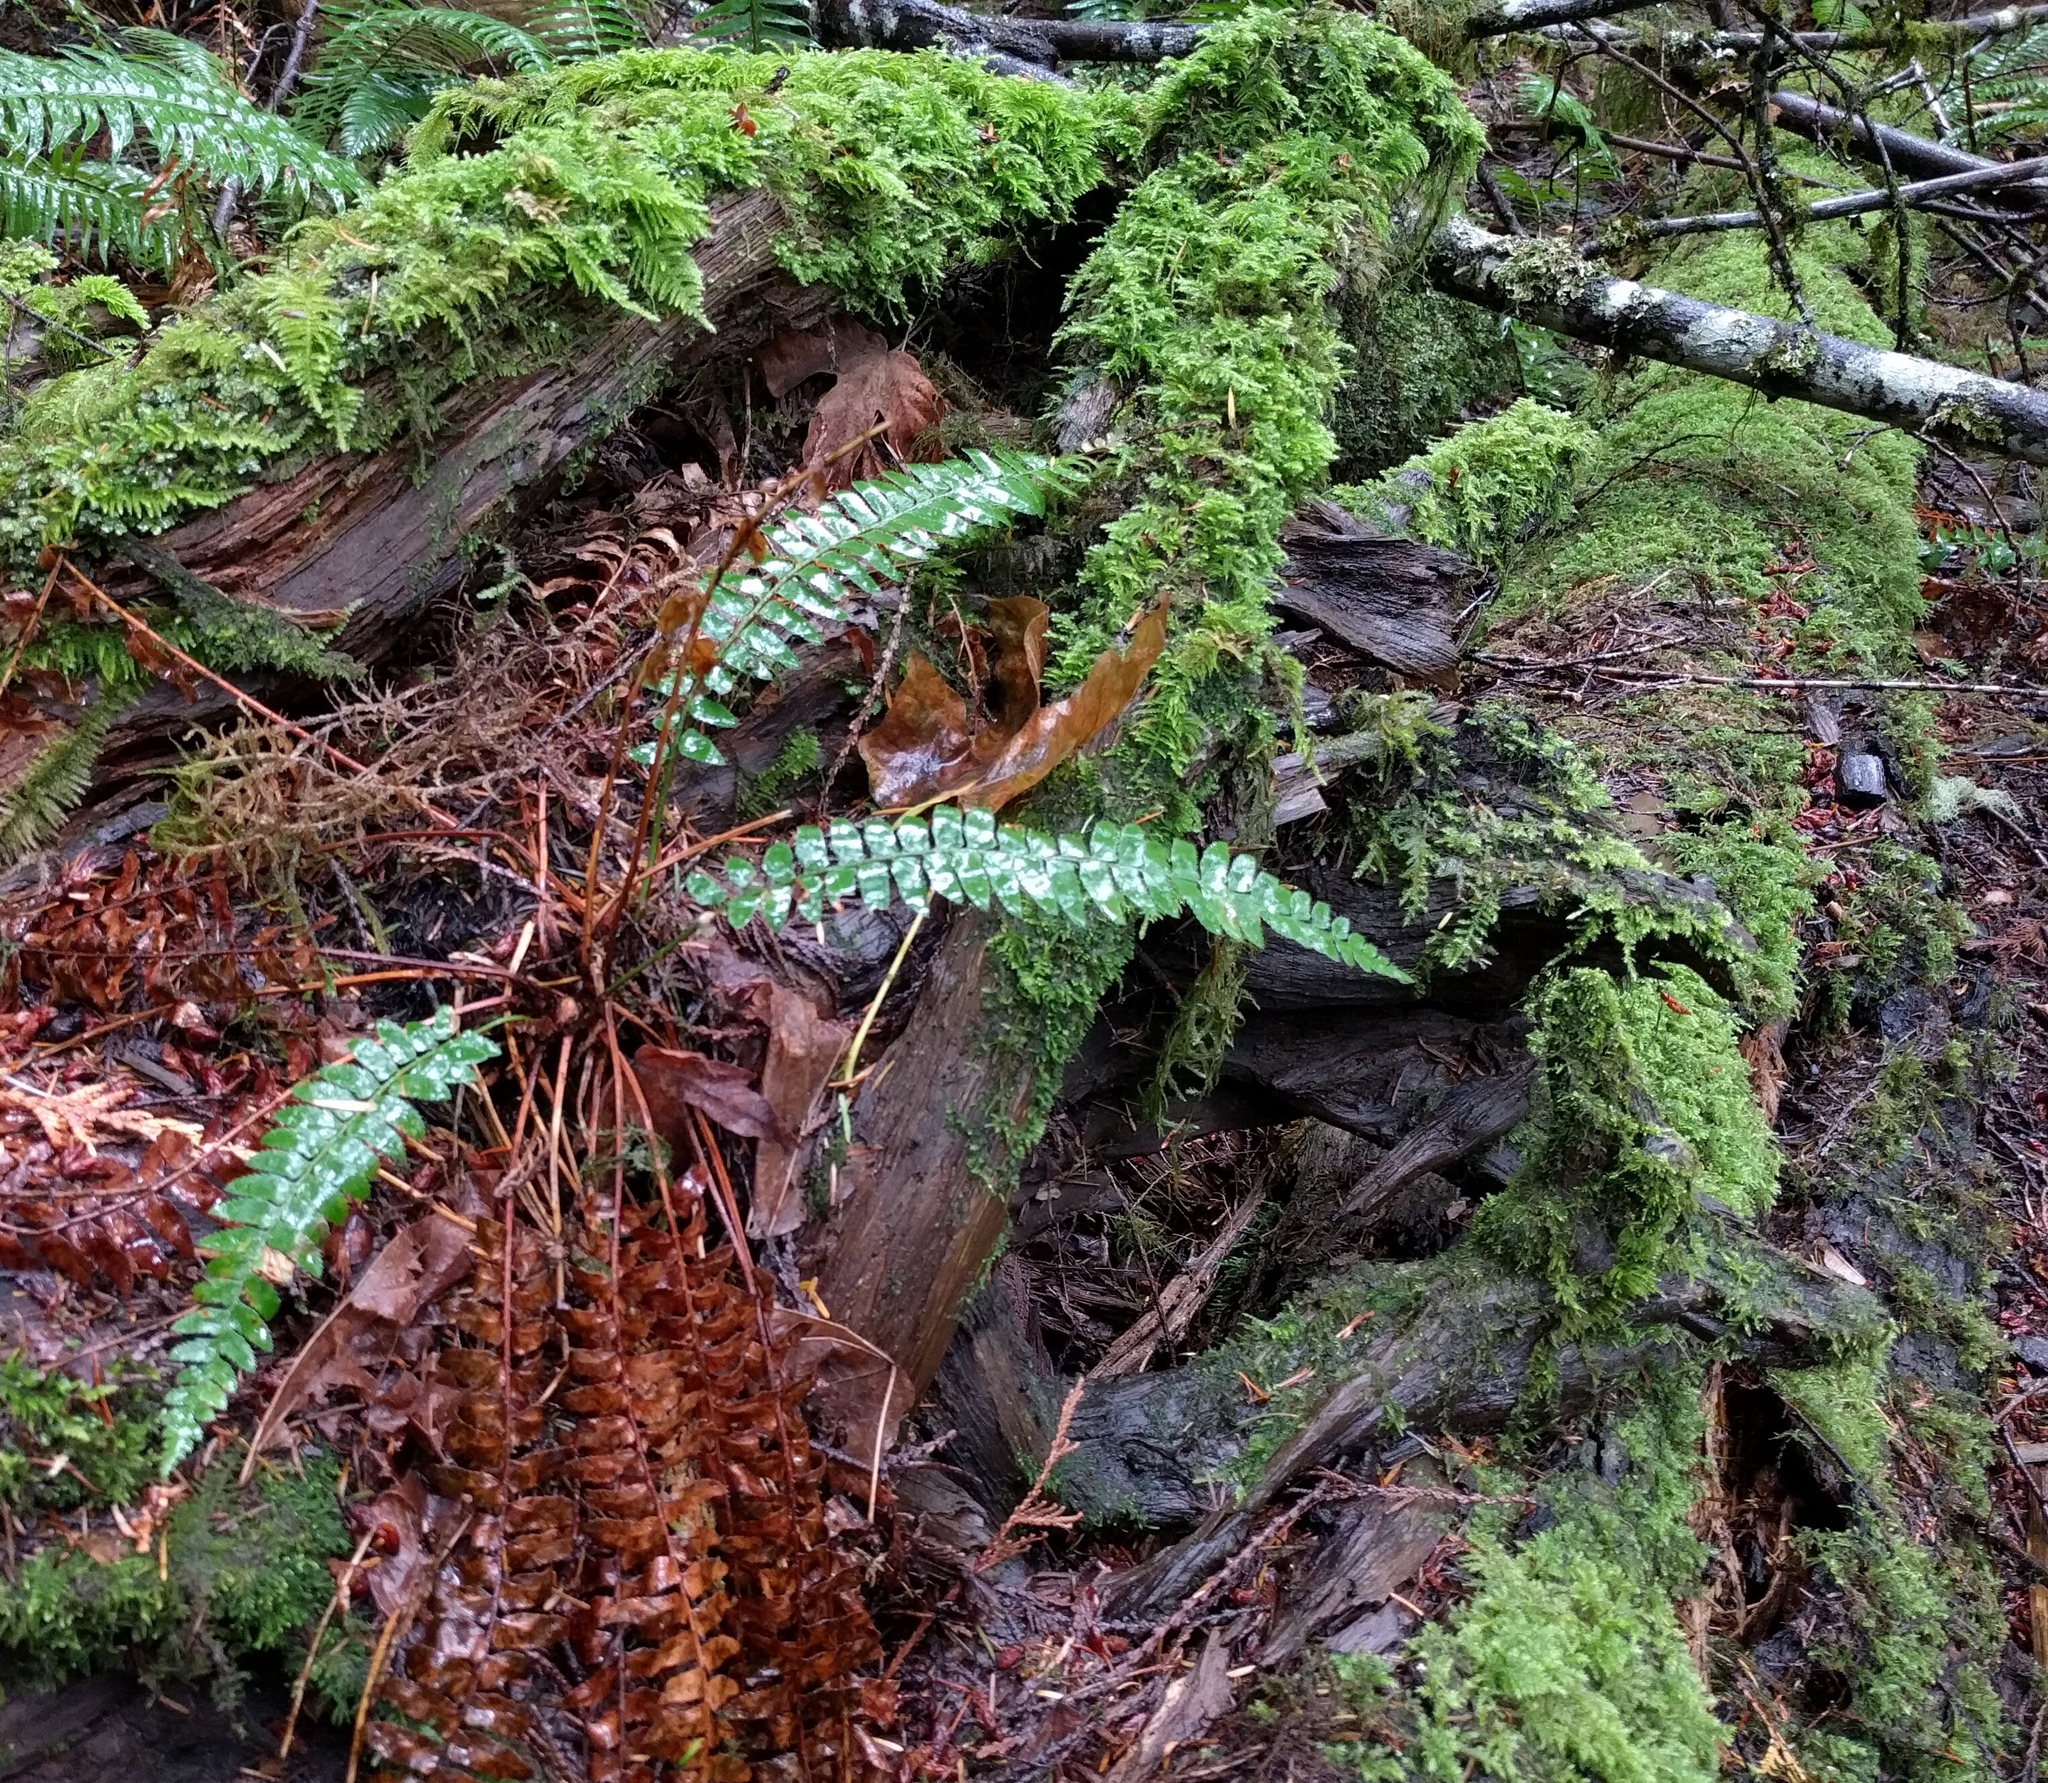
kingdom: Plantae
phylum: Tracheophyta
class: Polypodiopsida
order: Polypodiales
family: Dryopteridaceae
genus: Polystichum
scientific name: Polystichum munitum
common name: Western sword-fern
